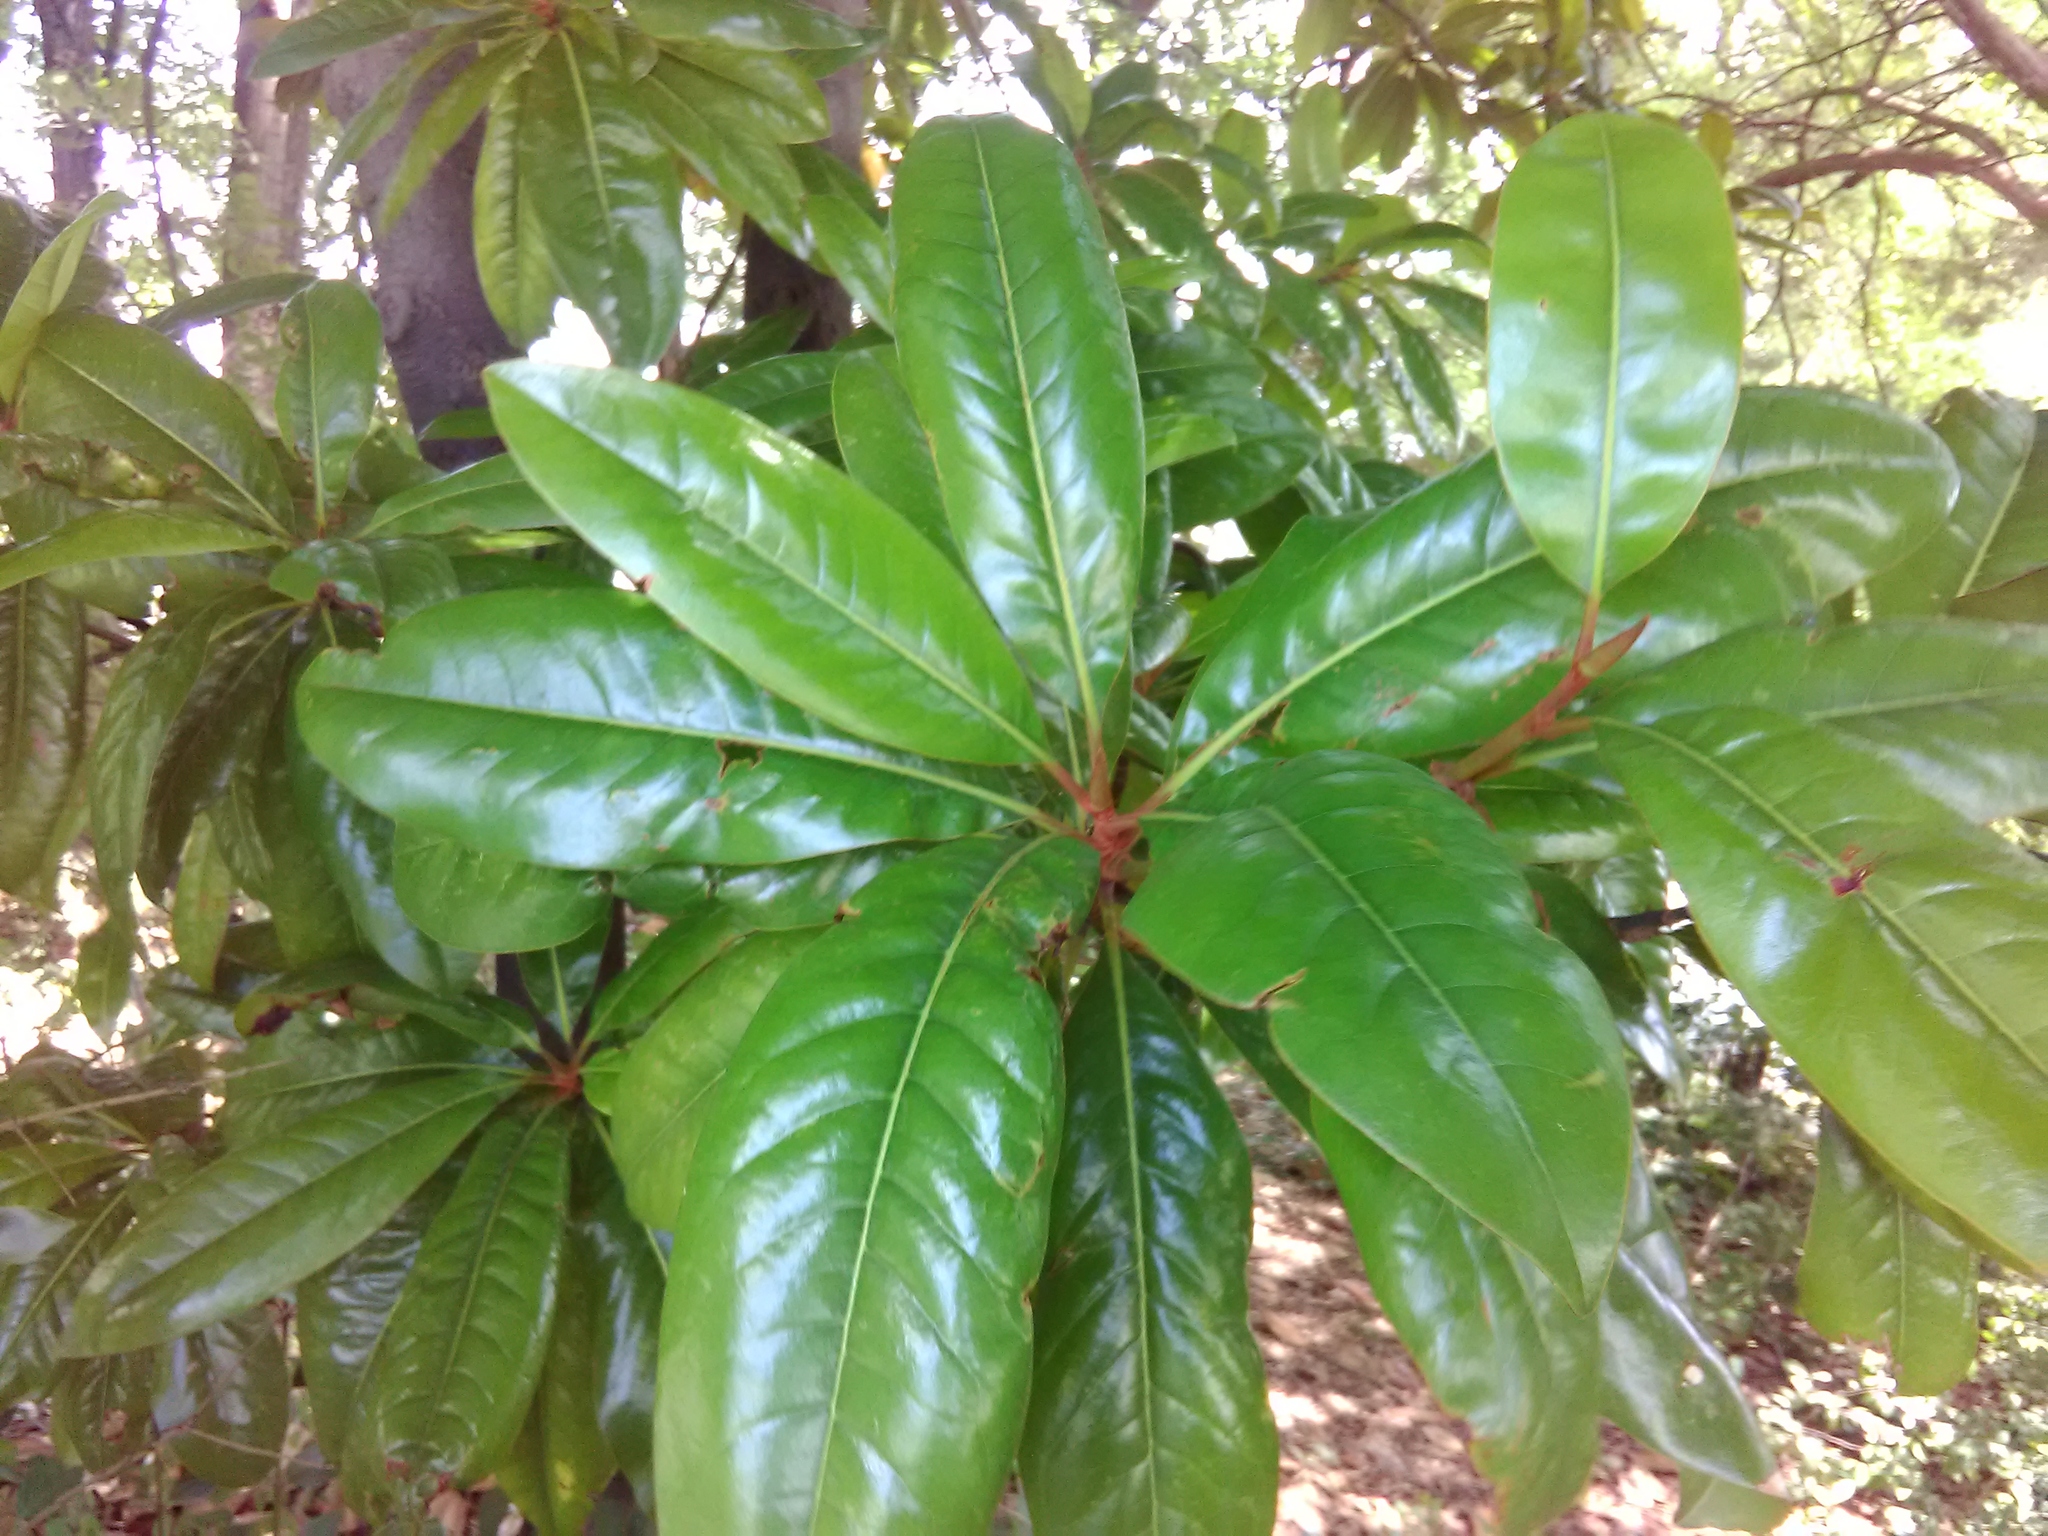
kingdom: Plantae
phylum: Tracheophyta
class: Magnoliopsida
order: Magnoliales
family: Magnoliaceae
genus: Magnolia
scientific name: Magnolia grandiflora
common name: Southern magnolia
